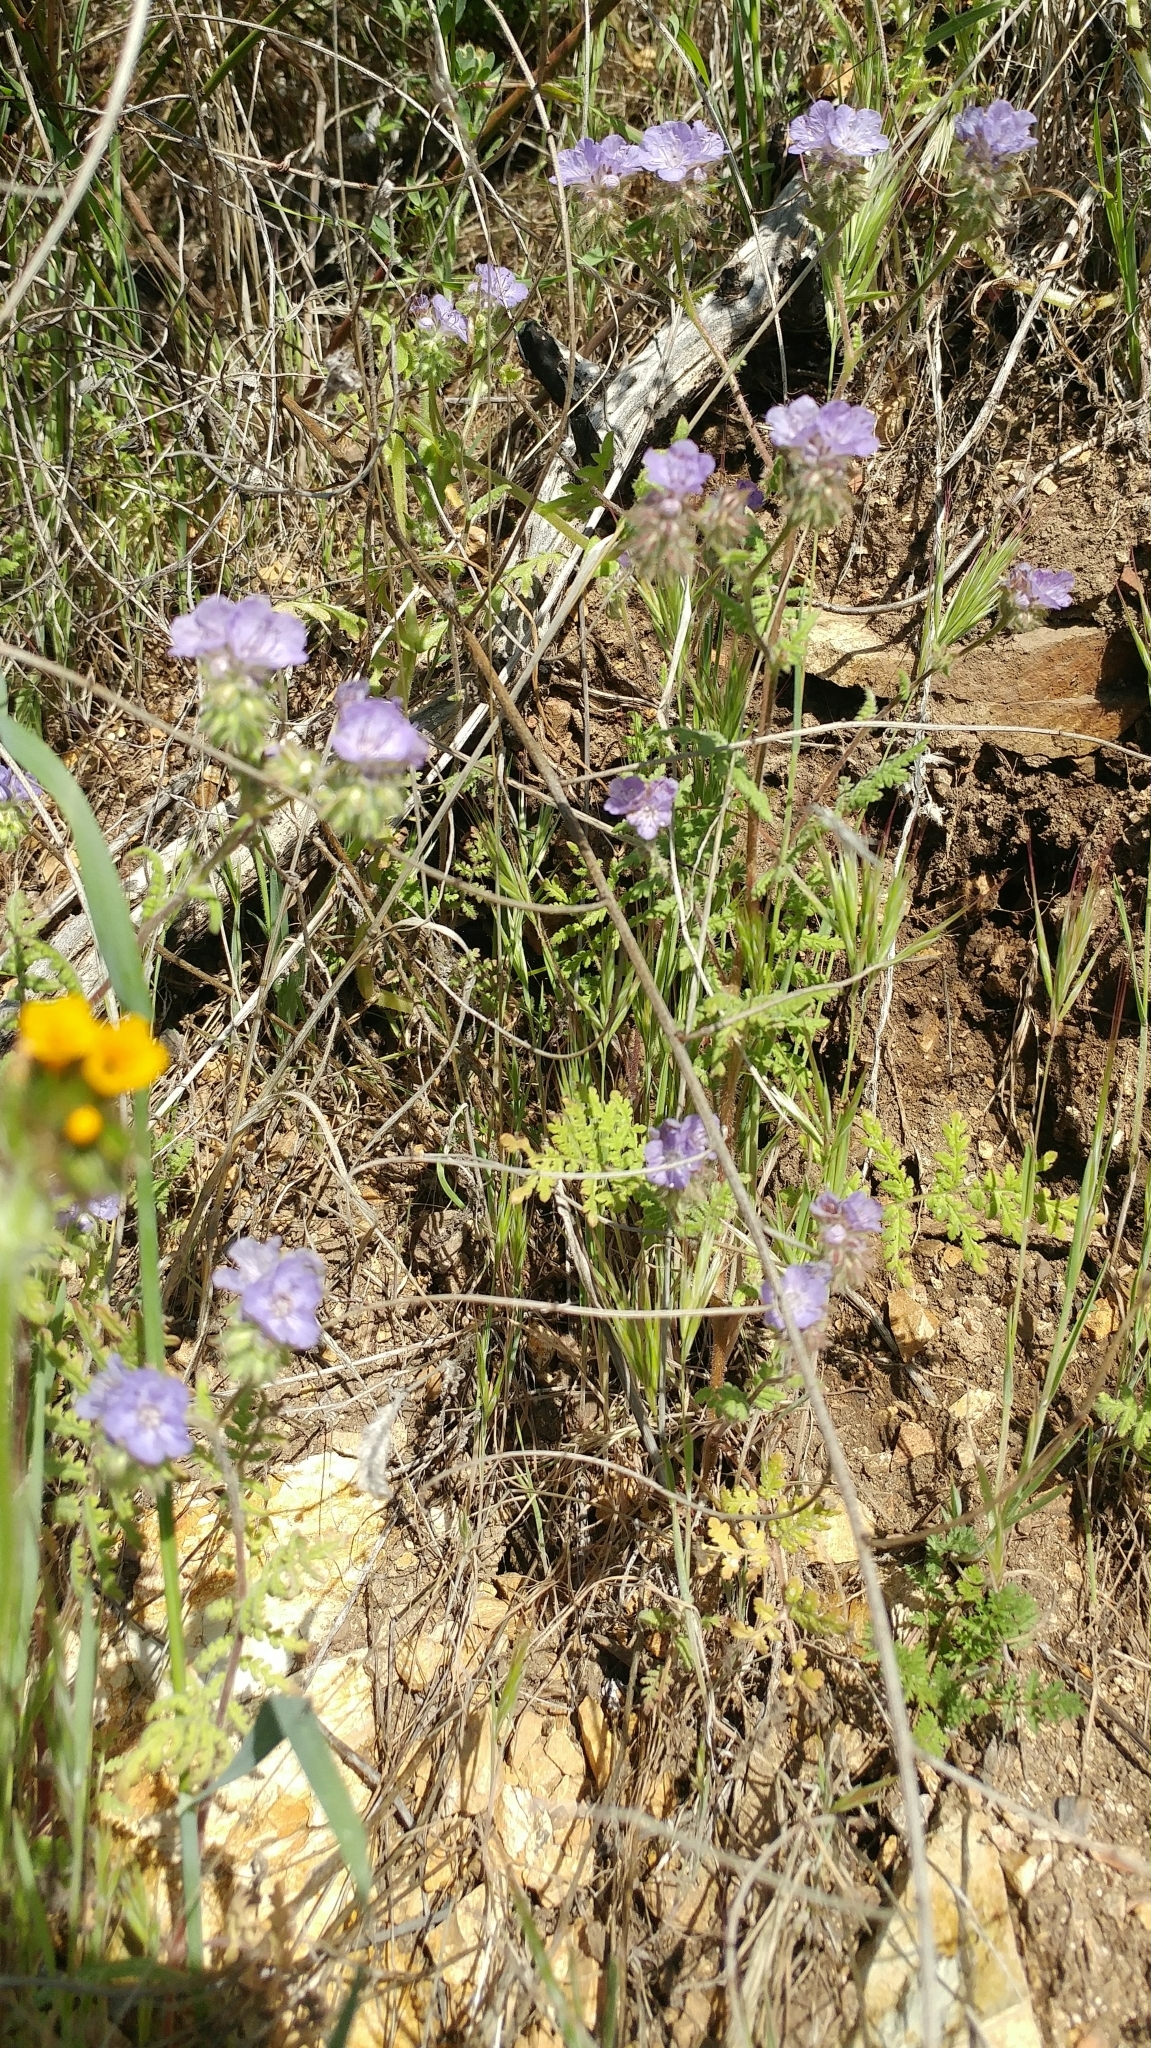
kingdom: Plantae
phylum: Tracheophyta
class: Magnoliopsida
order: Boraginales
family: Hydrophyllaceae
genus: Phacelia
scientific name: Phacelia distans
